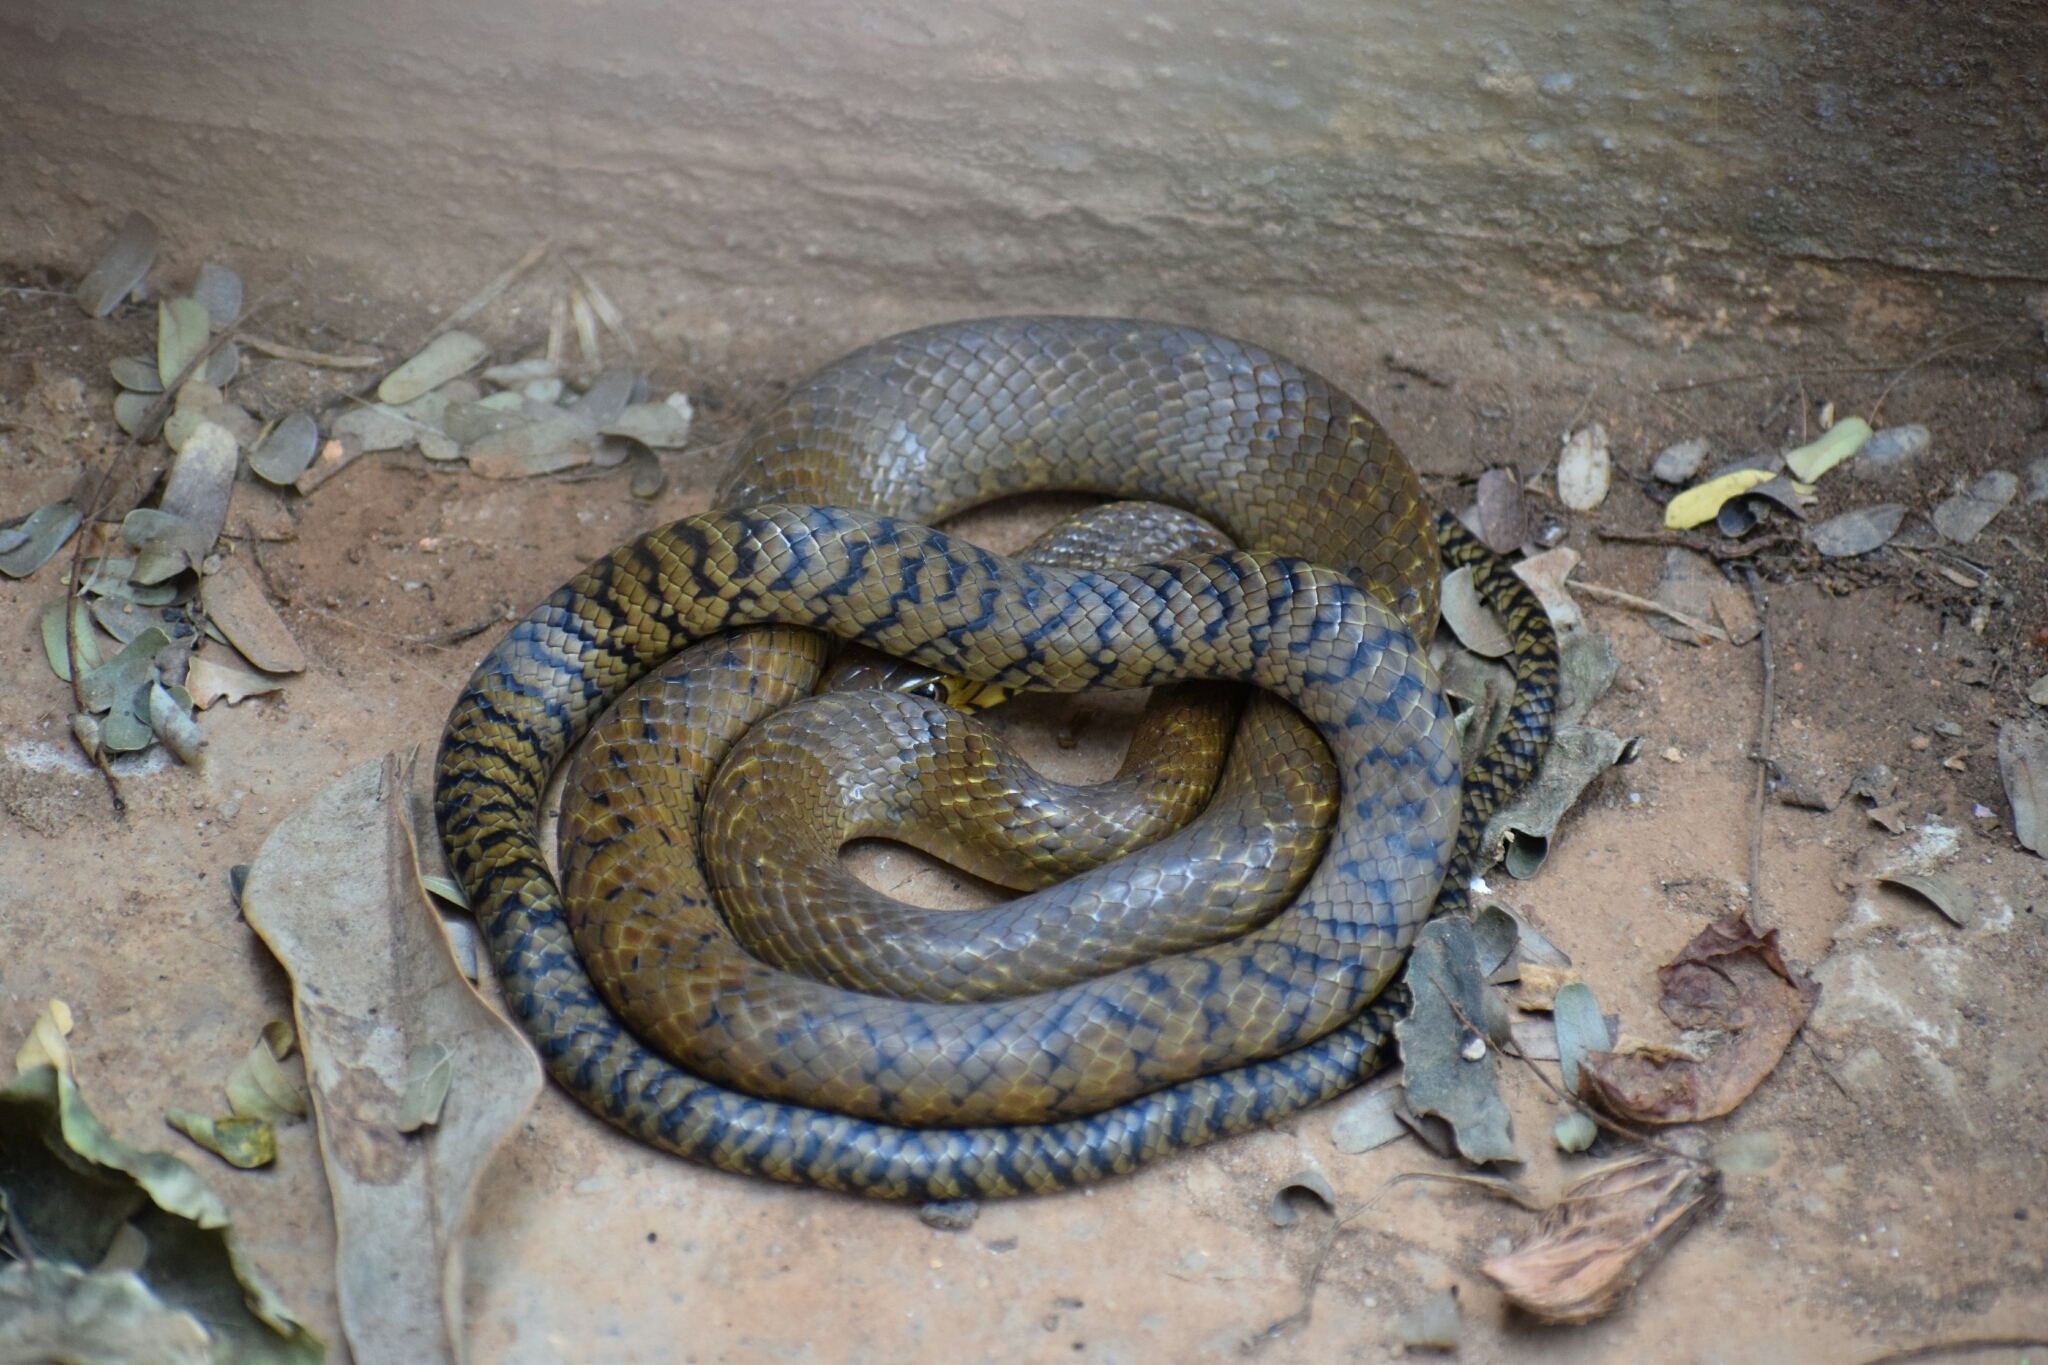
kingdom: Animalia
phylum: Chordata
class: Squamata
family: Colubridae
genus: Ptyas
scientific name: Ptyas mucosa
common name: Oriental ratsnake
